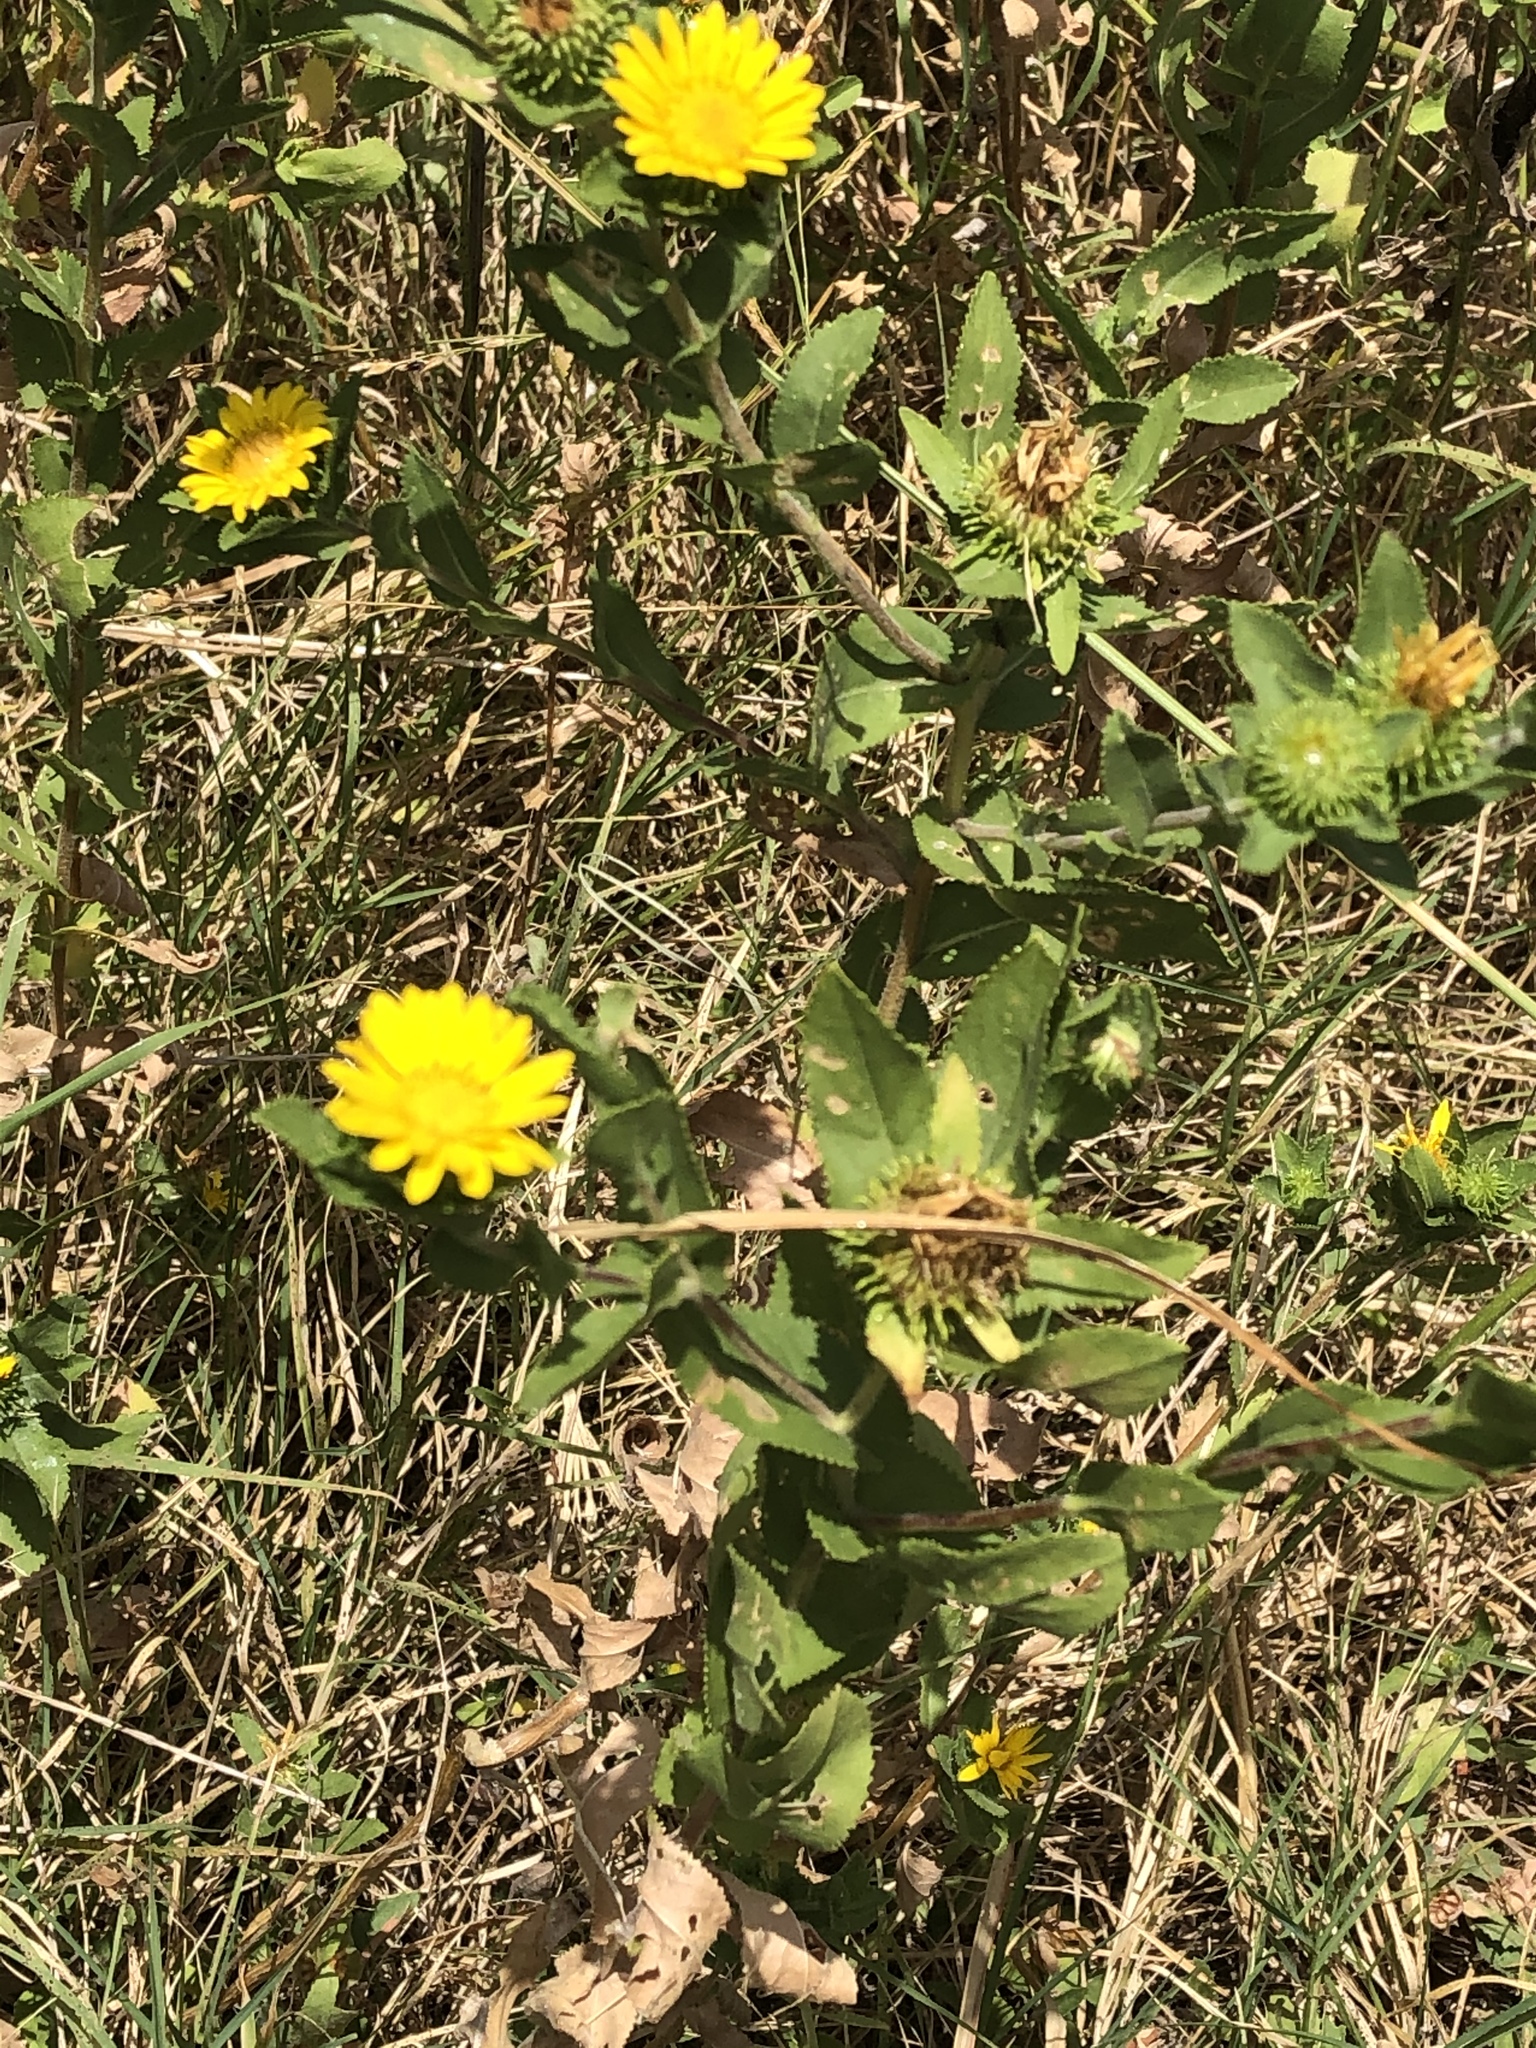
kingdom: Plantae
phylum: Tracheophyta
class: Magnoliopsida
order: Asterales
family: Asteraceae
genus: Grindelia
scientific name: Grindelia adenodonta
